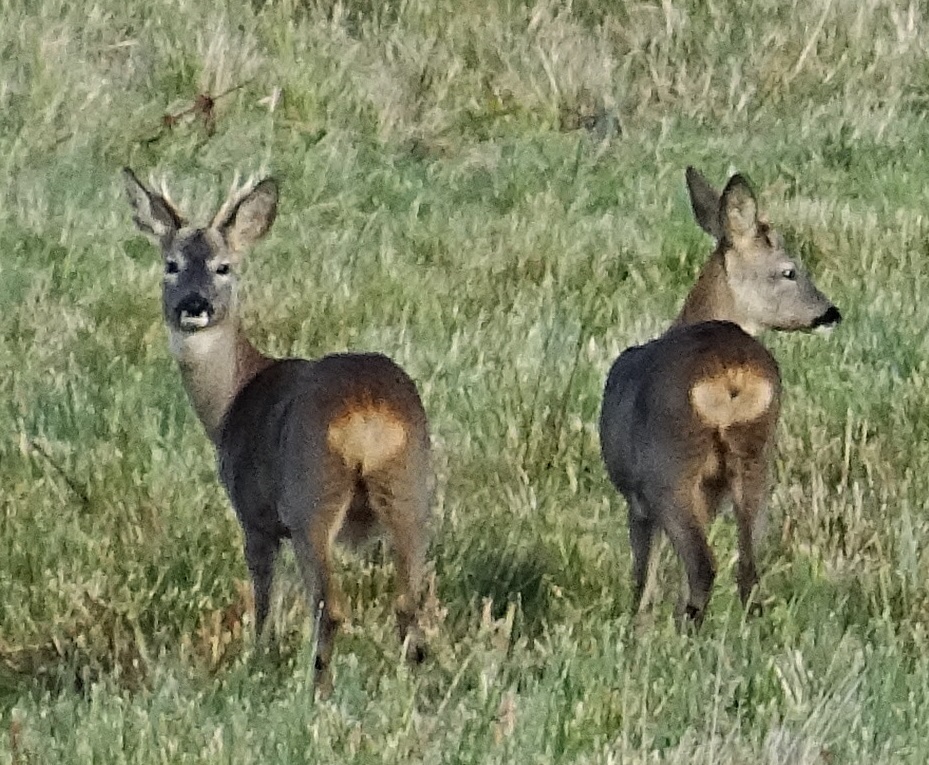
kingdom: Animalia
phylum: Chordata
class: Mammalia
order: Artiodactyla
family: Cervidae
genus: Capreolus
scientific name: Capreolus capreolus
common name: Western roe deer
